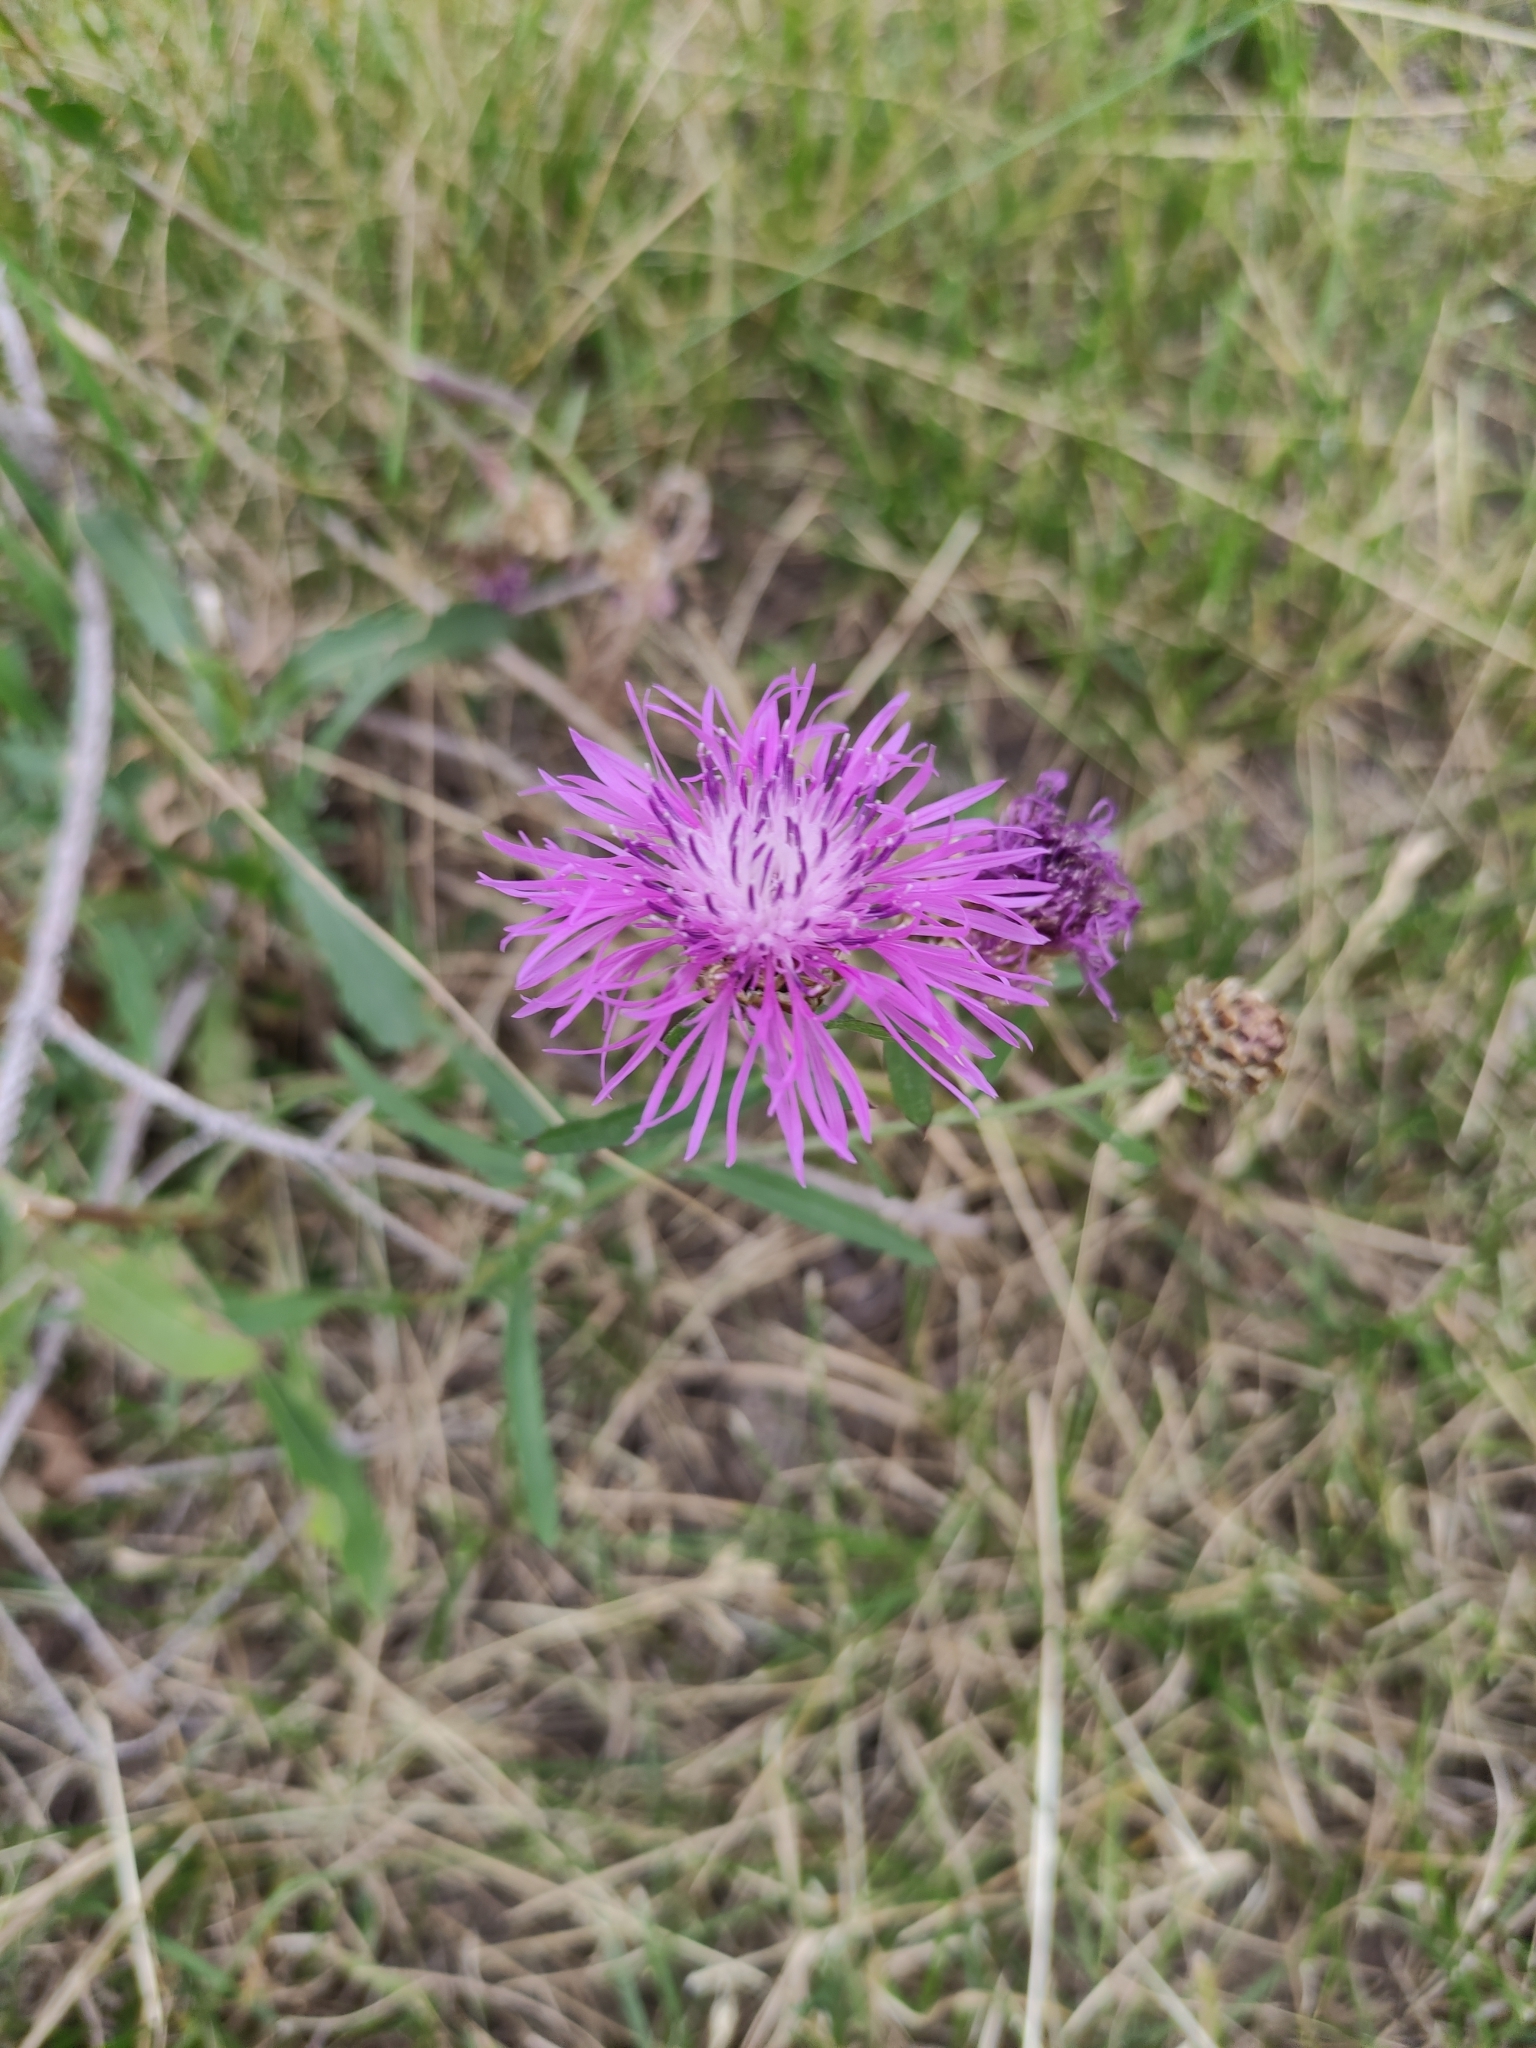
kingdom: Plantae
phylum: Tracheophyta
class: Magnoliopsida
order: Asterales
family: Asteraceae
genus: Centaurea
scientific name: Centaurea jacea
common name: Brown knapweed
